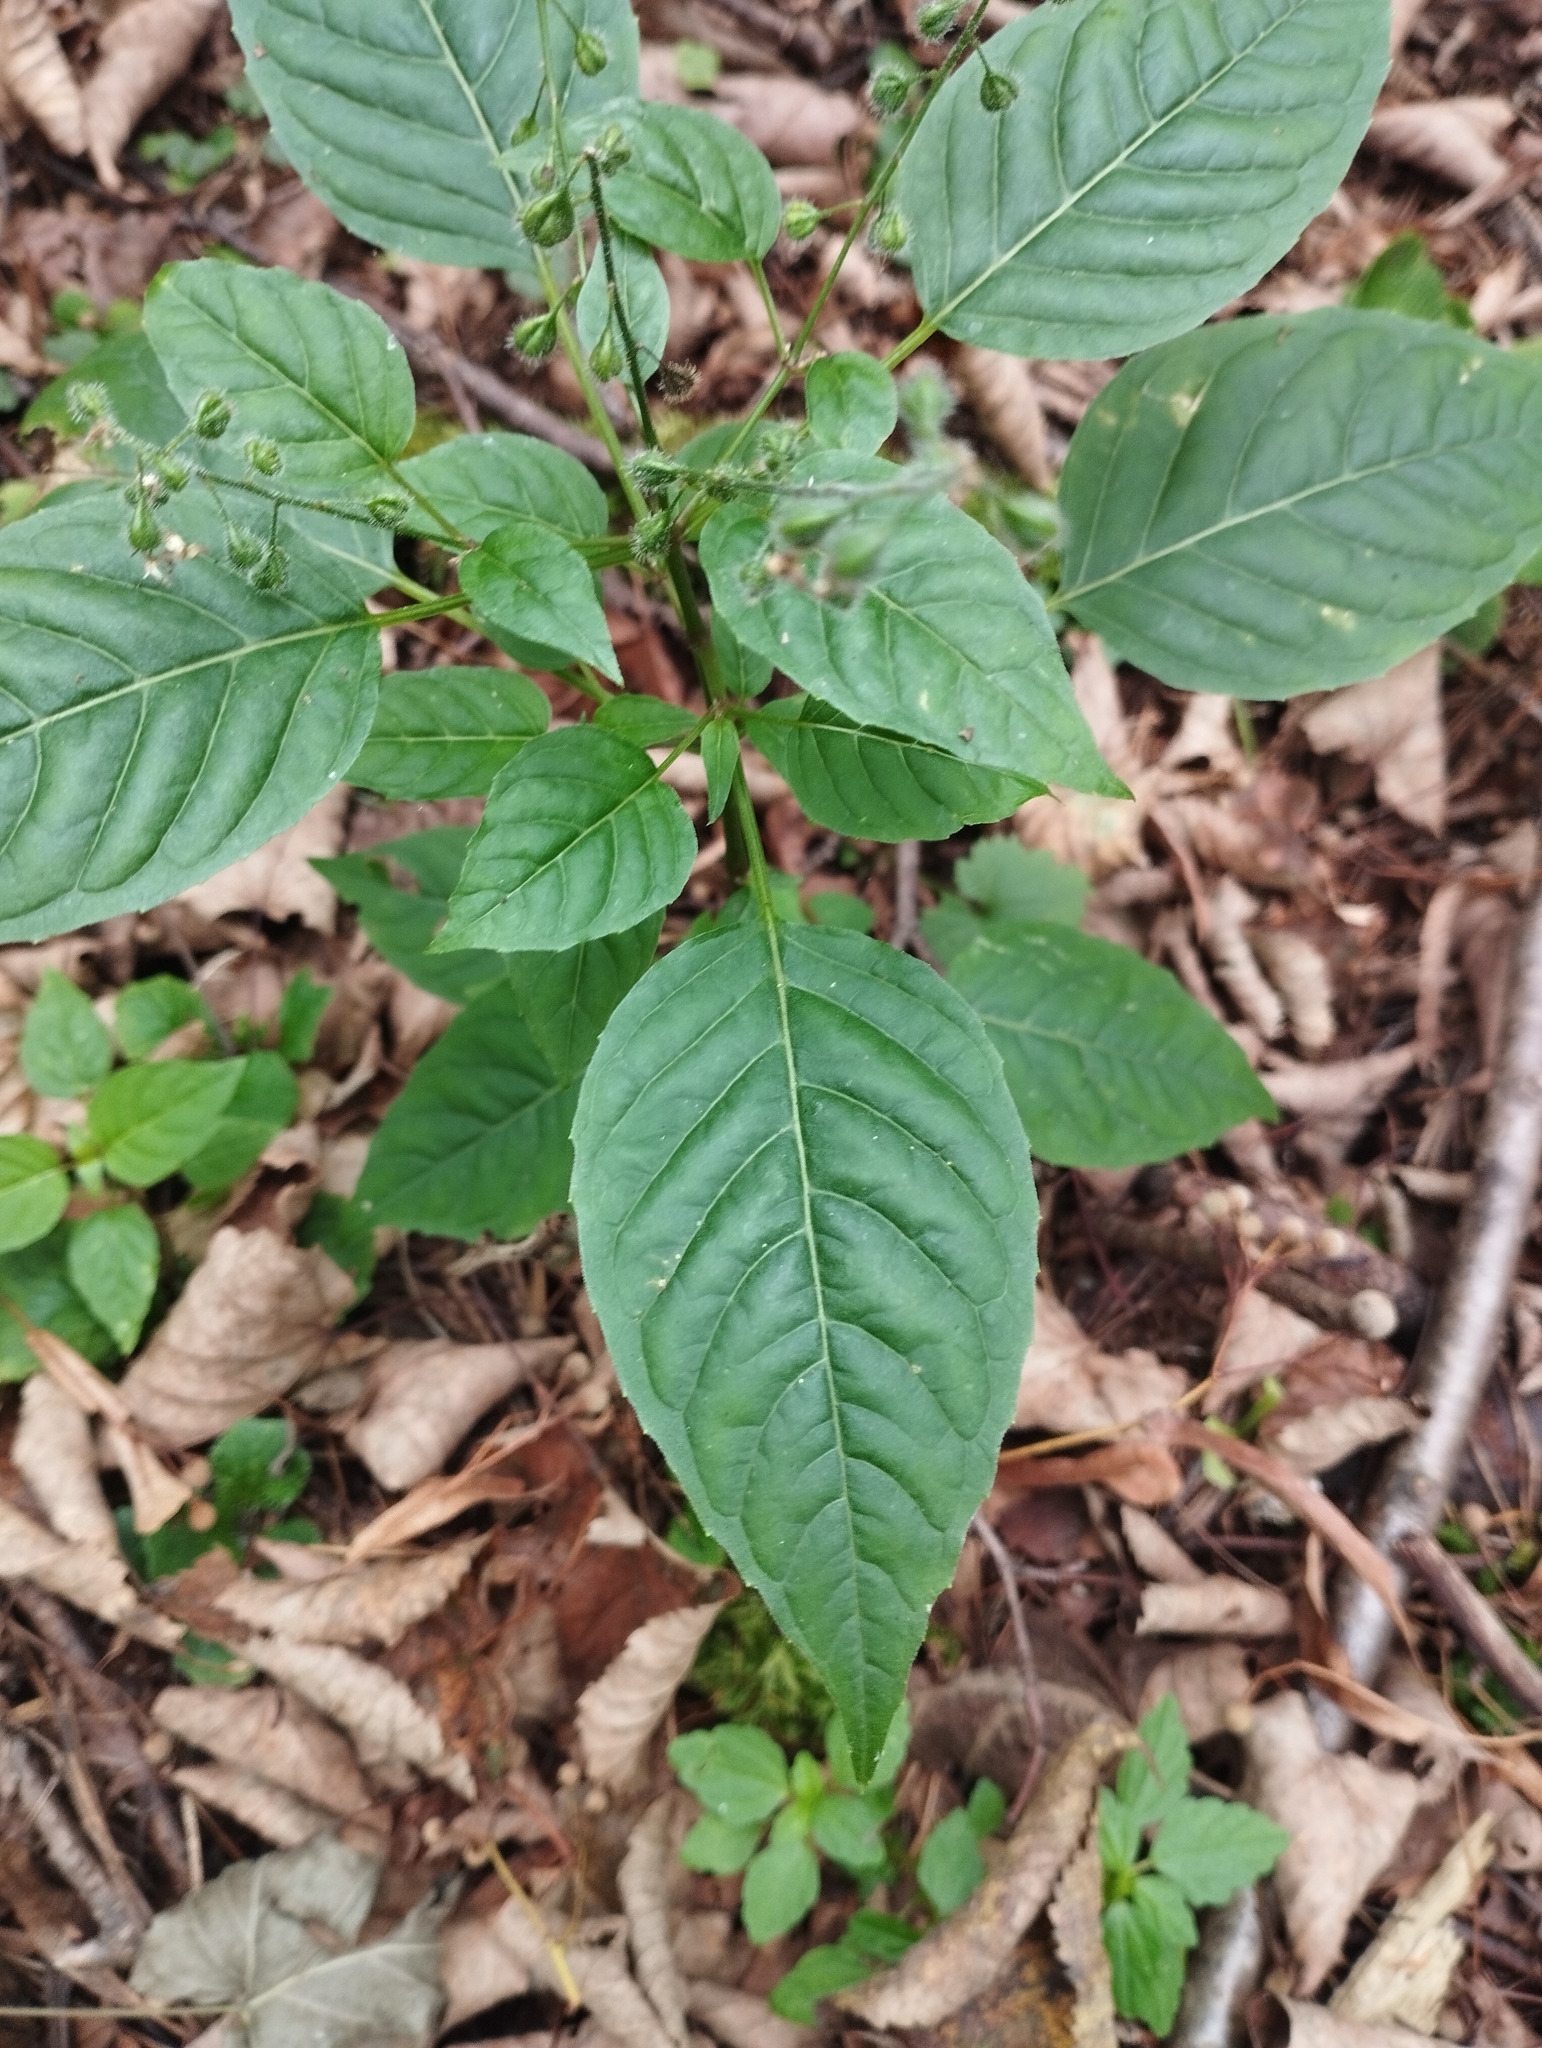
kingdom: Plantae
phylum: Tracheophyta
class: Magnoliopsida
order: Myrtales
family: Onagraceae
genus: Circaea
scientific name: Circaea canadensis
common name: Broad-leaved enchanter's nightshade
